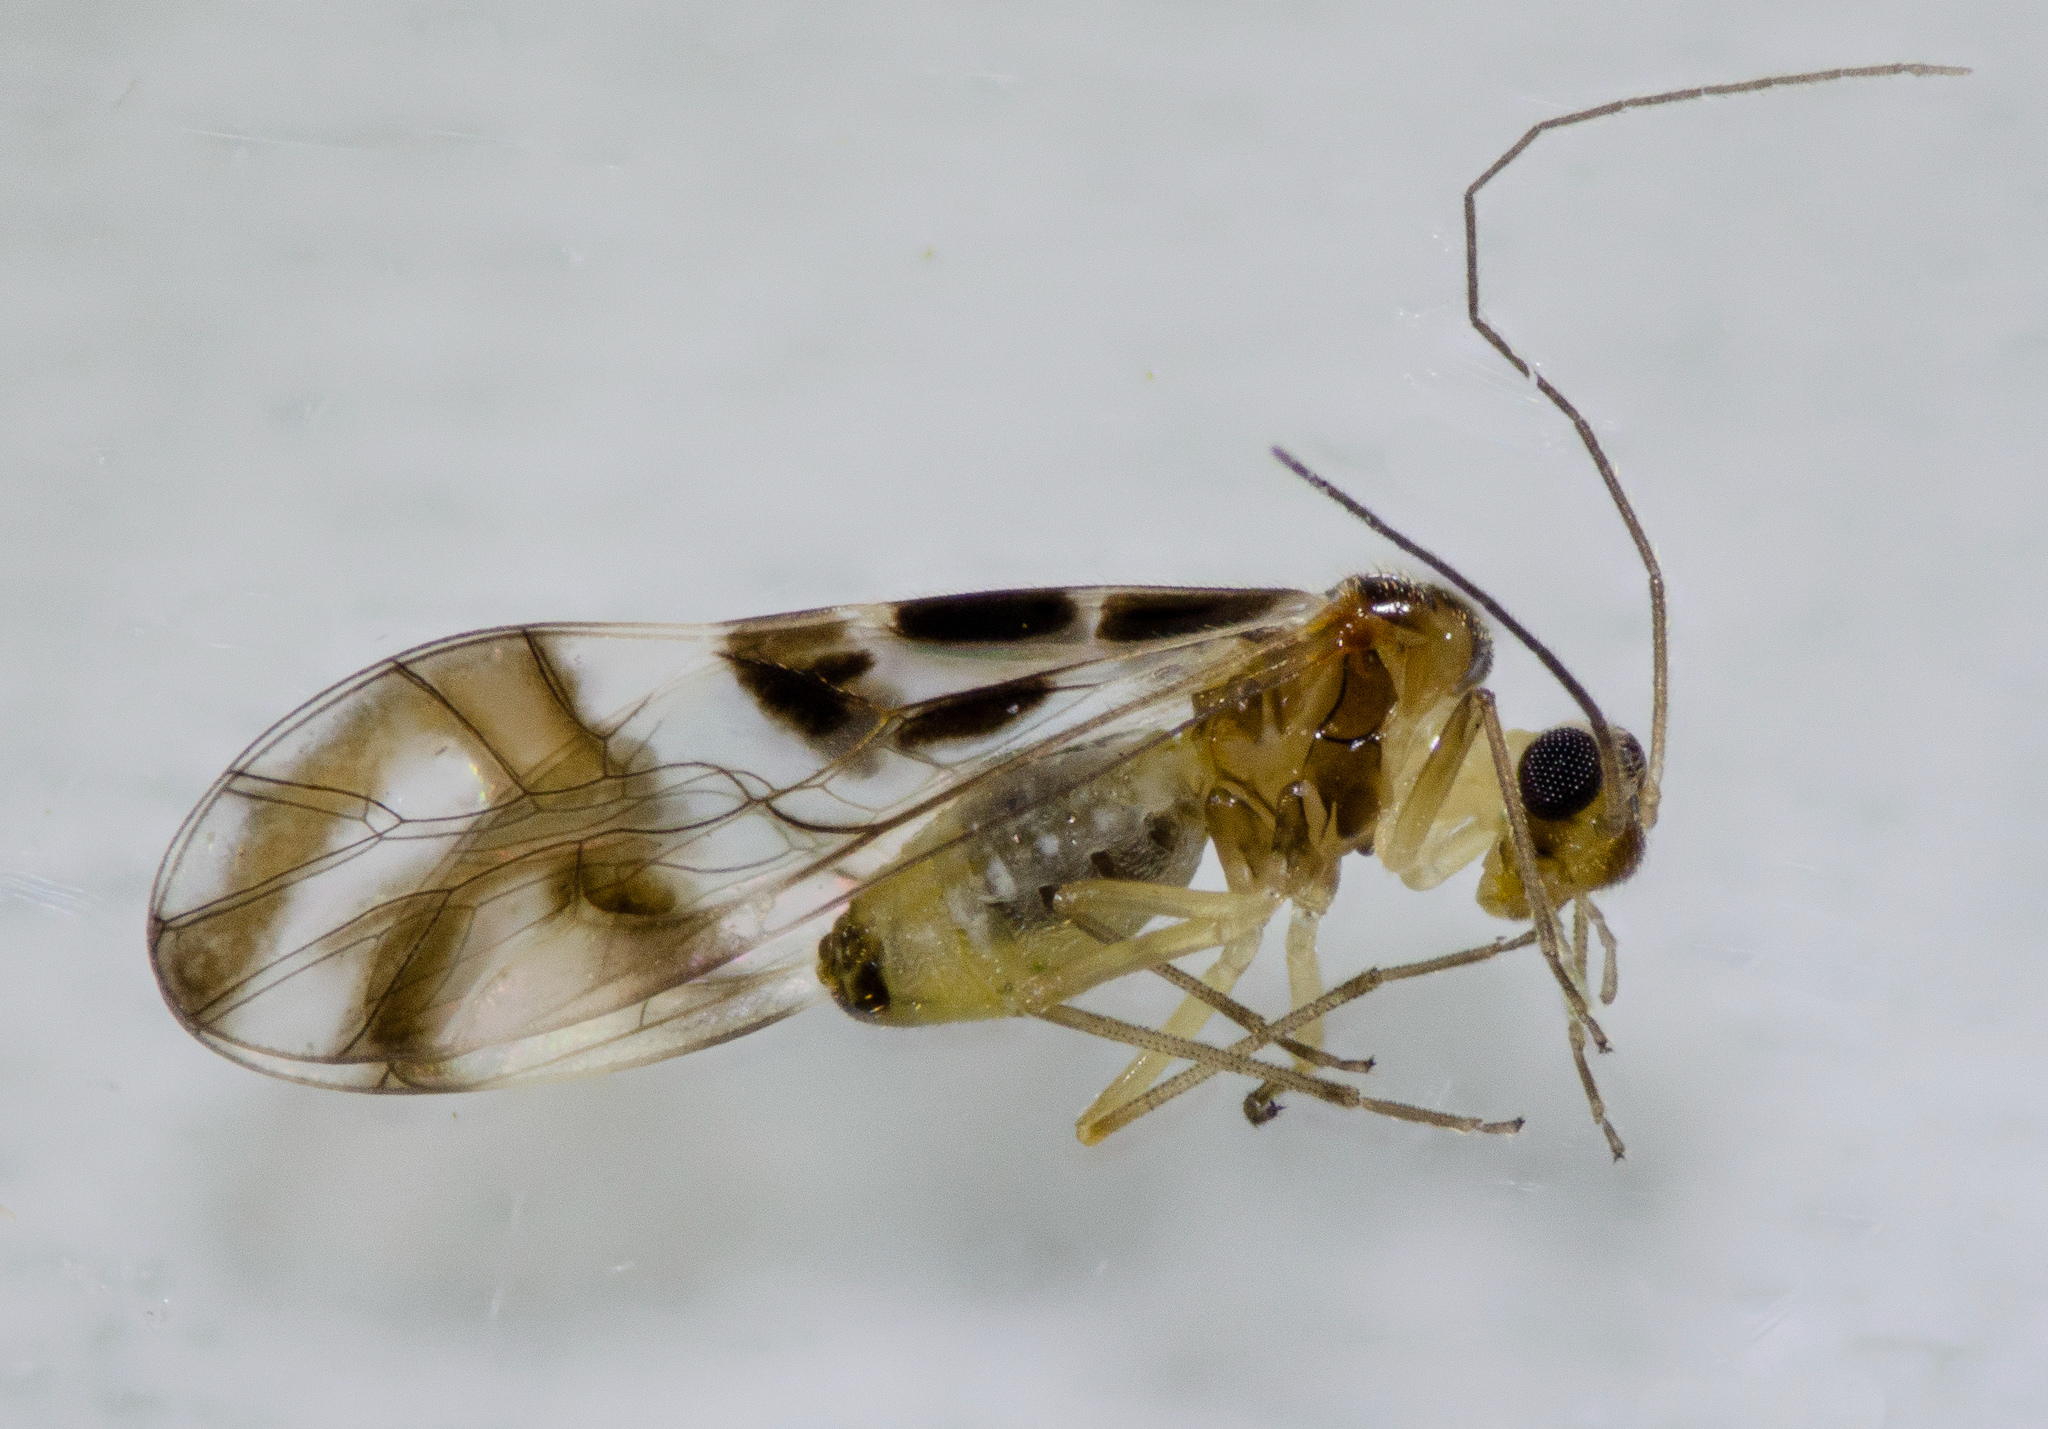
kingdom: Animalia
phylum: Arthropoda
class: Insecta
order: Psocodea
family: Stenopsocidae
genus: Graphopsocus
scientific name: Graphopsocus cruciatus
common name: Lizard bark louse
